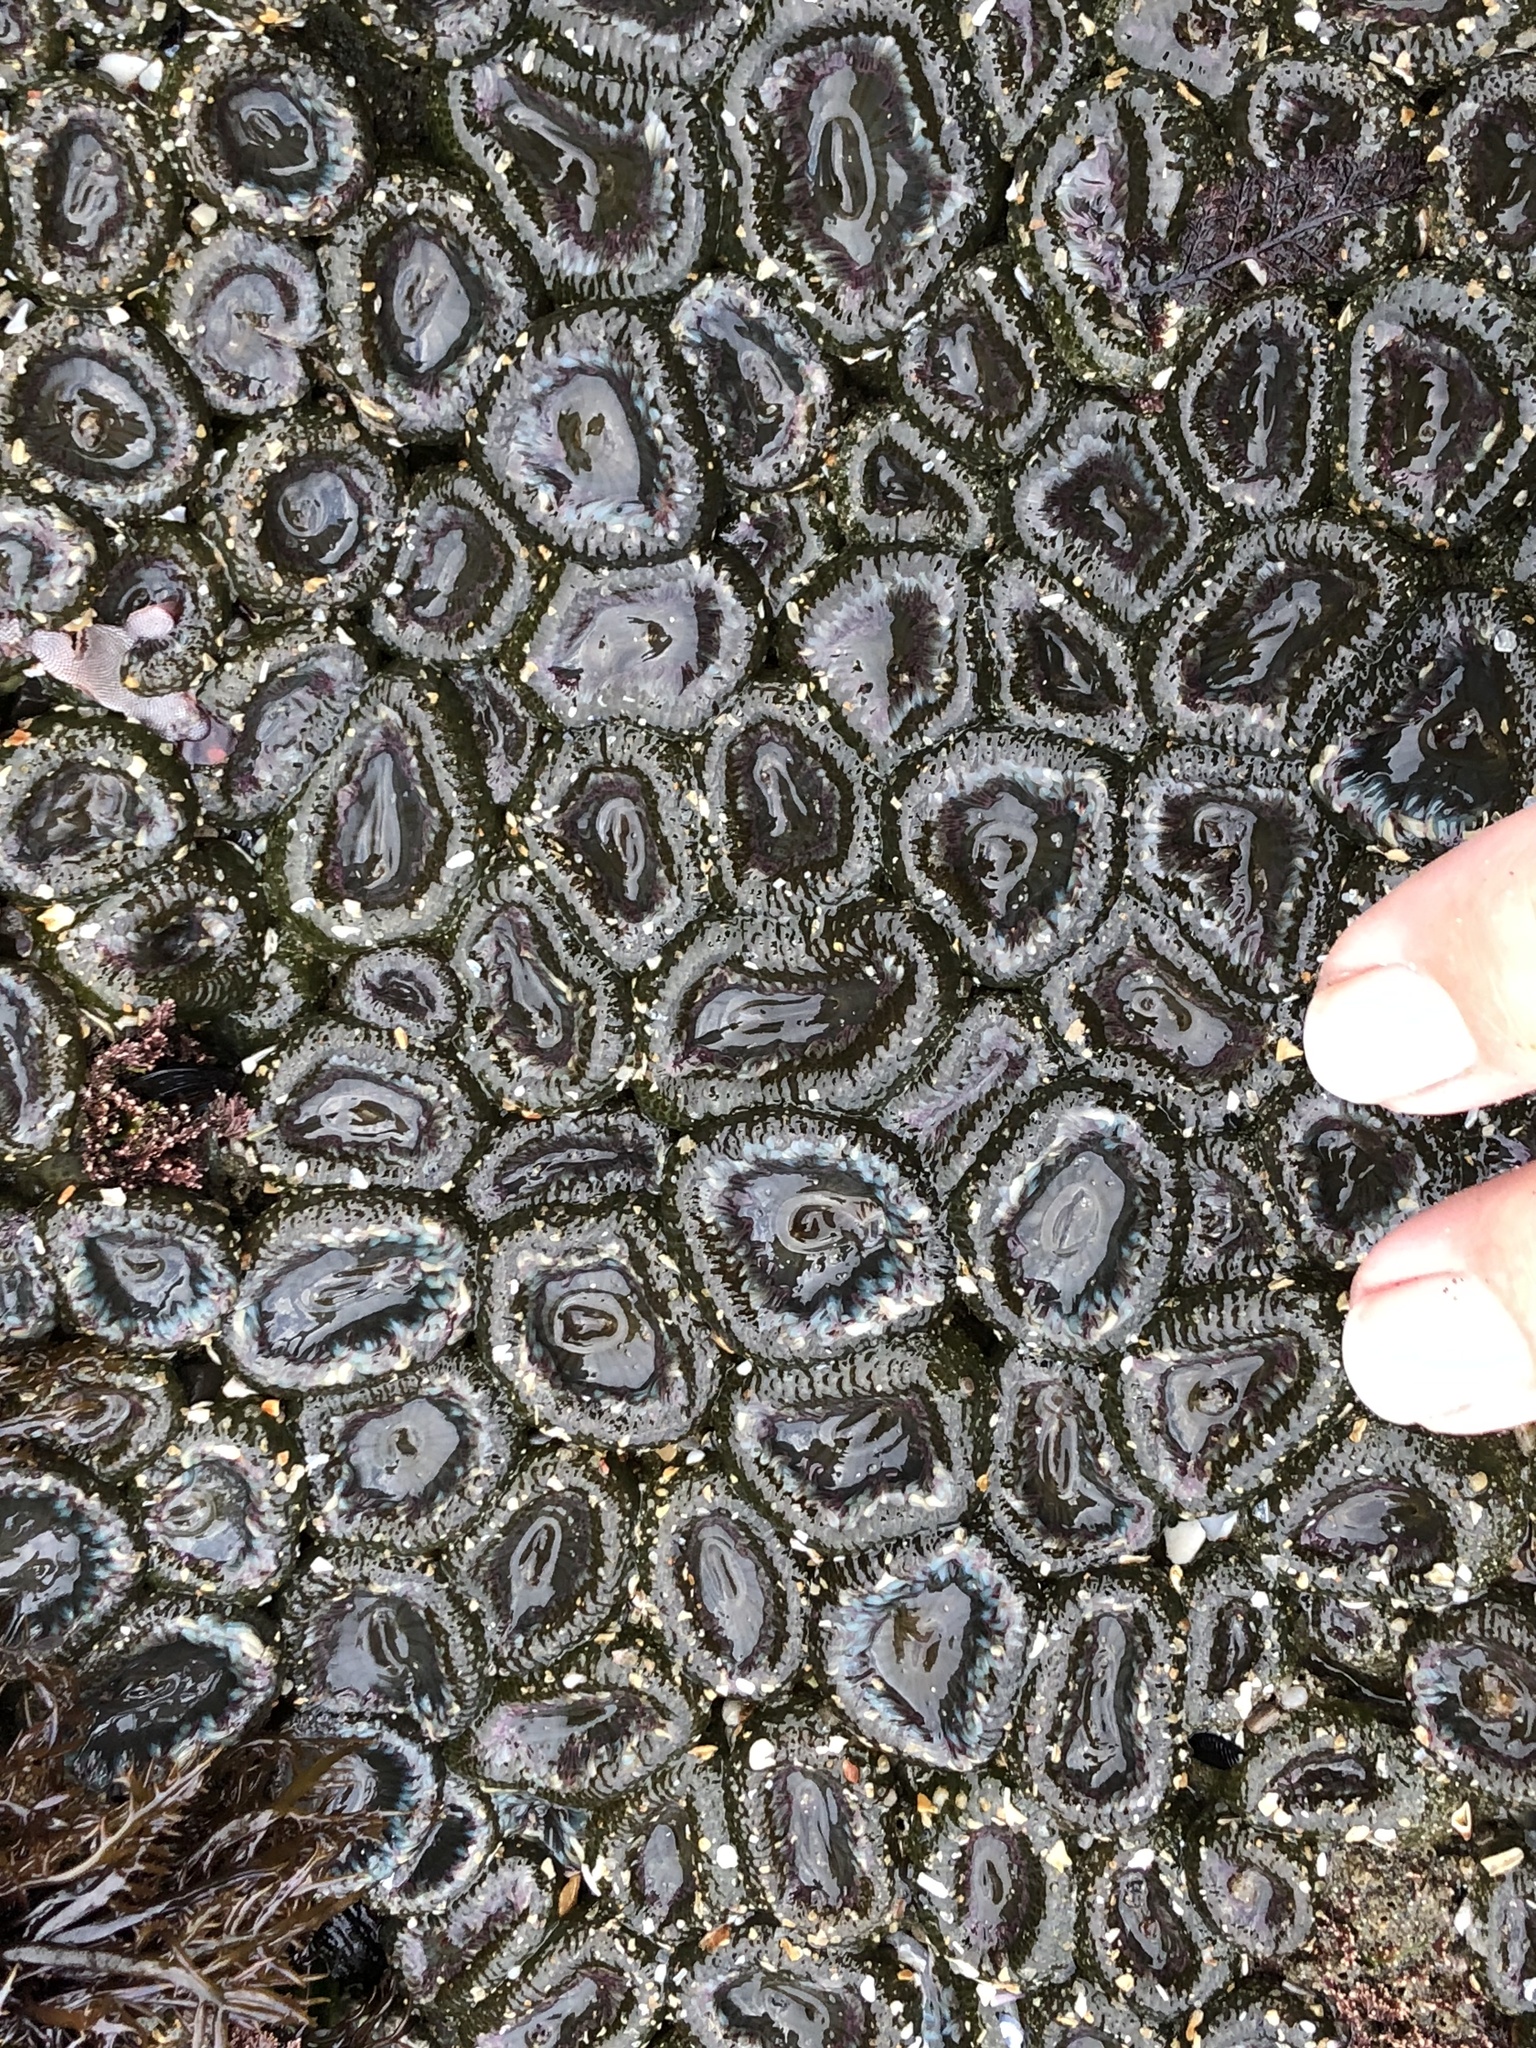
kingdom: Animalia
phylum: Cnidaria
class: Anthozoa
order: Actiniaria
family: Actiniidae
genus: Anthopleura
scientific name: Anthopleura elegantissima
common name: Clonal anemone
